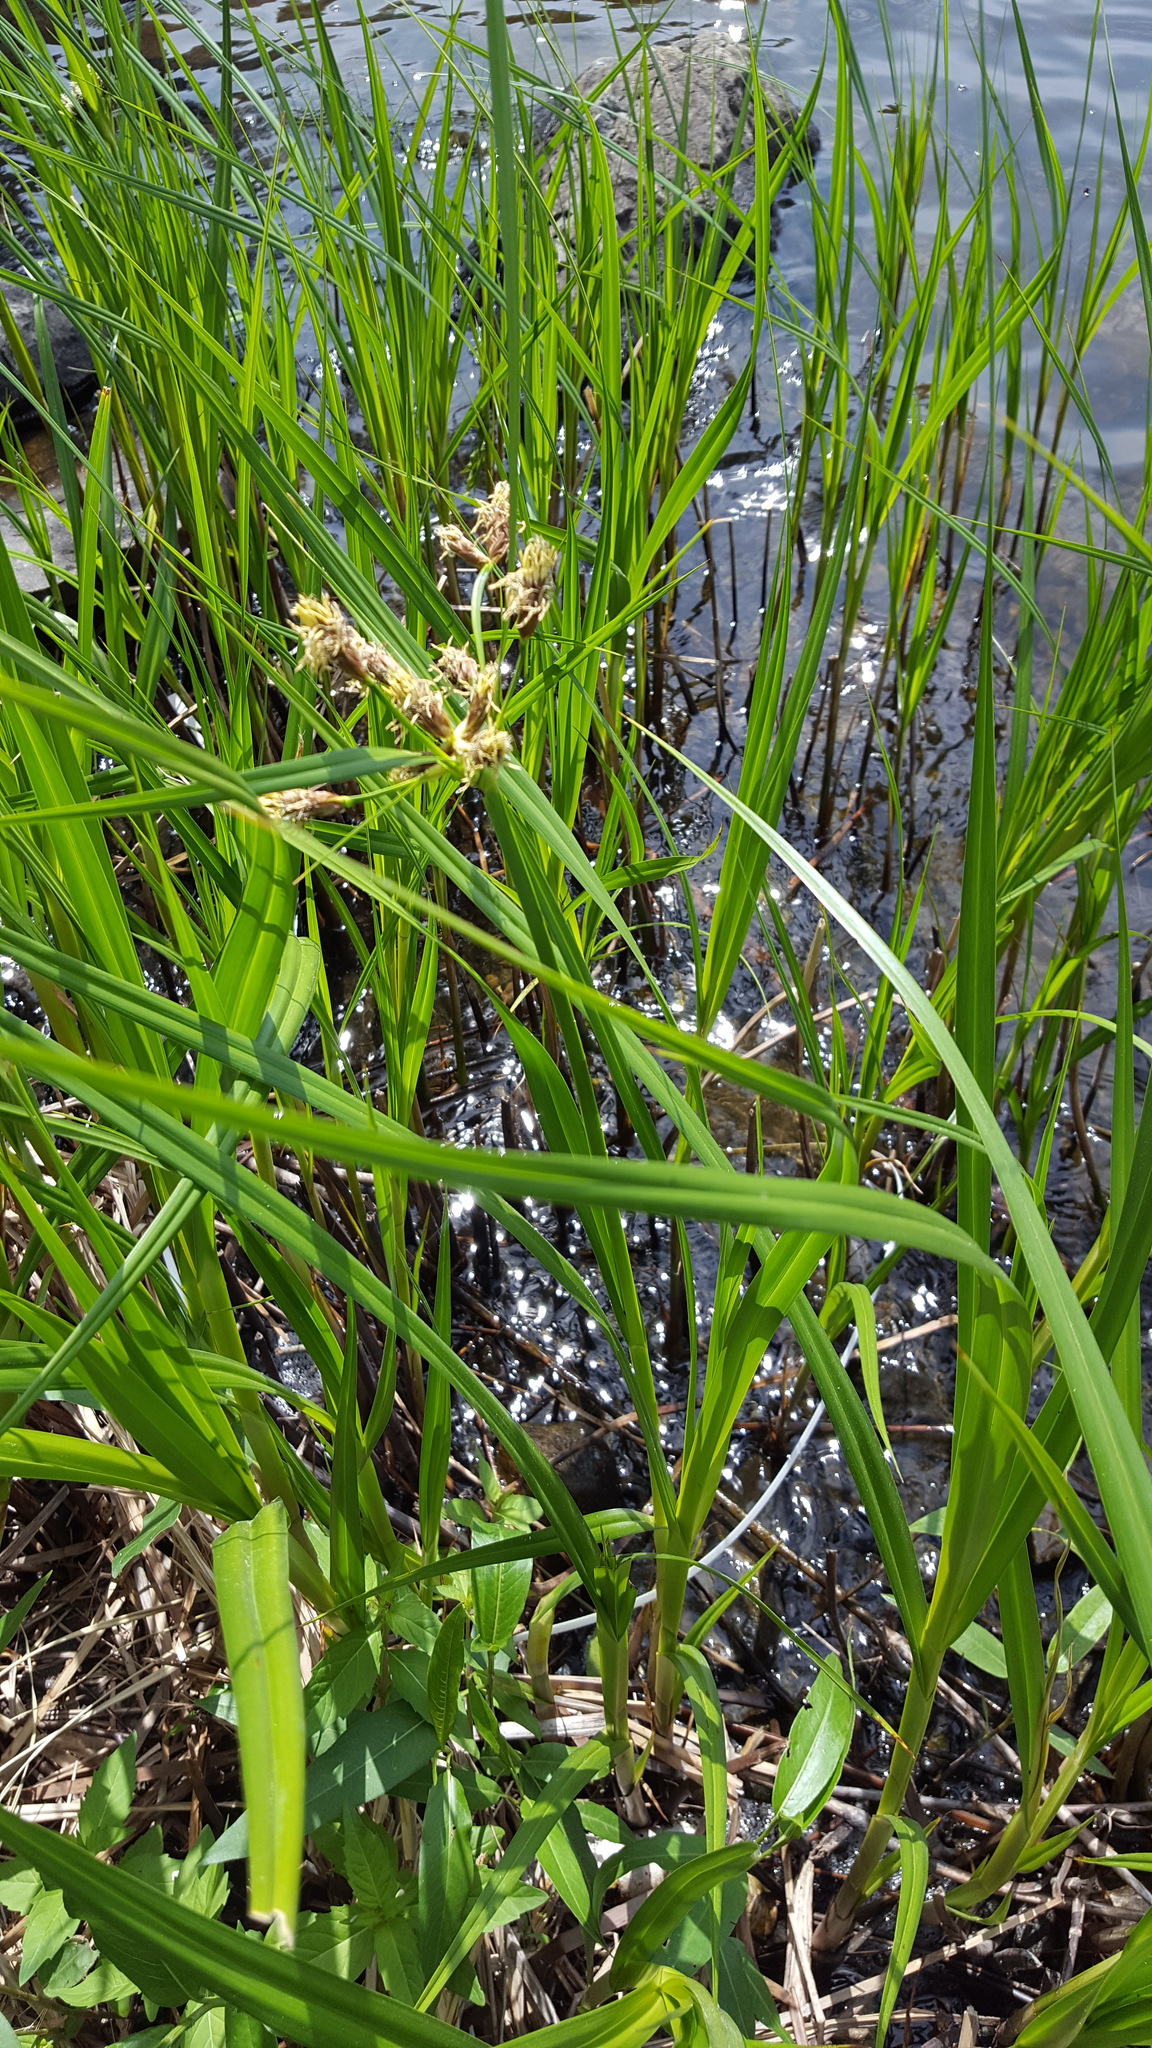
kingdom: Plantae
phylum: Tracheophyta
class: Liliopsida
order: Poales
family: Cyperaceae
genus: Bolboschoenus
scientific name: Bolboschoenus fluviatilis
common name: River bulrush
